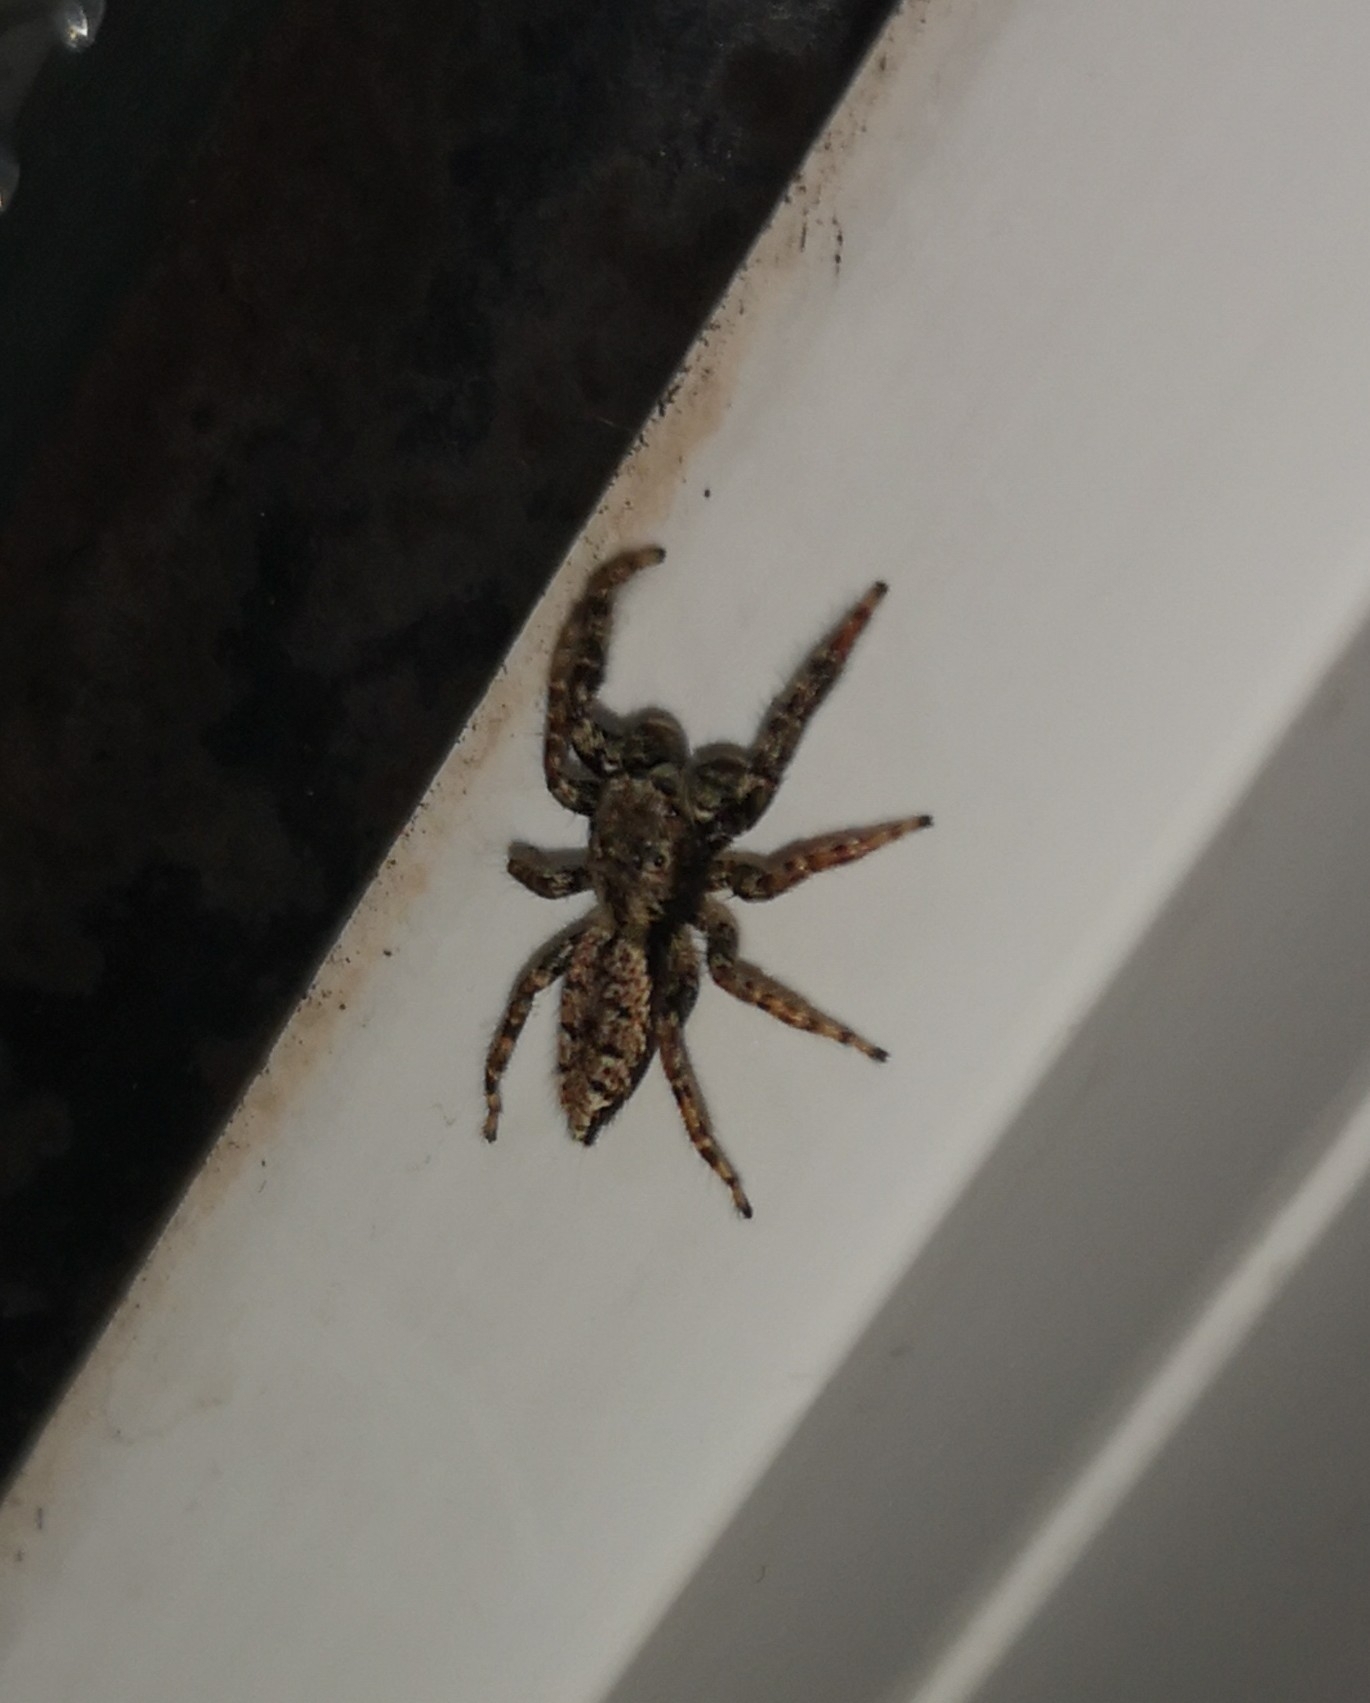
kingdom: Animalia
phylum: Arthropoda
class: Arachnida
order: Araneae
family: Salticidae
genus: Marpissa
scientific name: Marpissa muscosa
